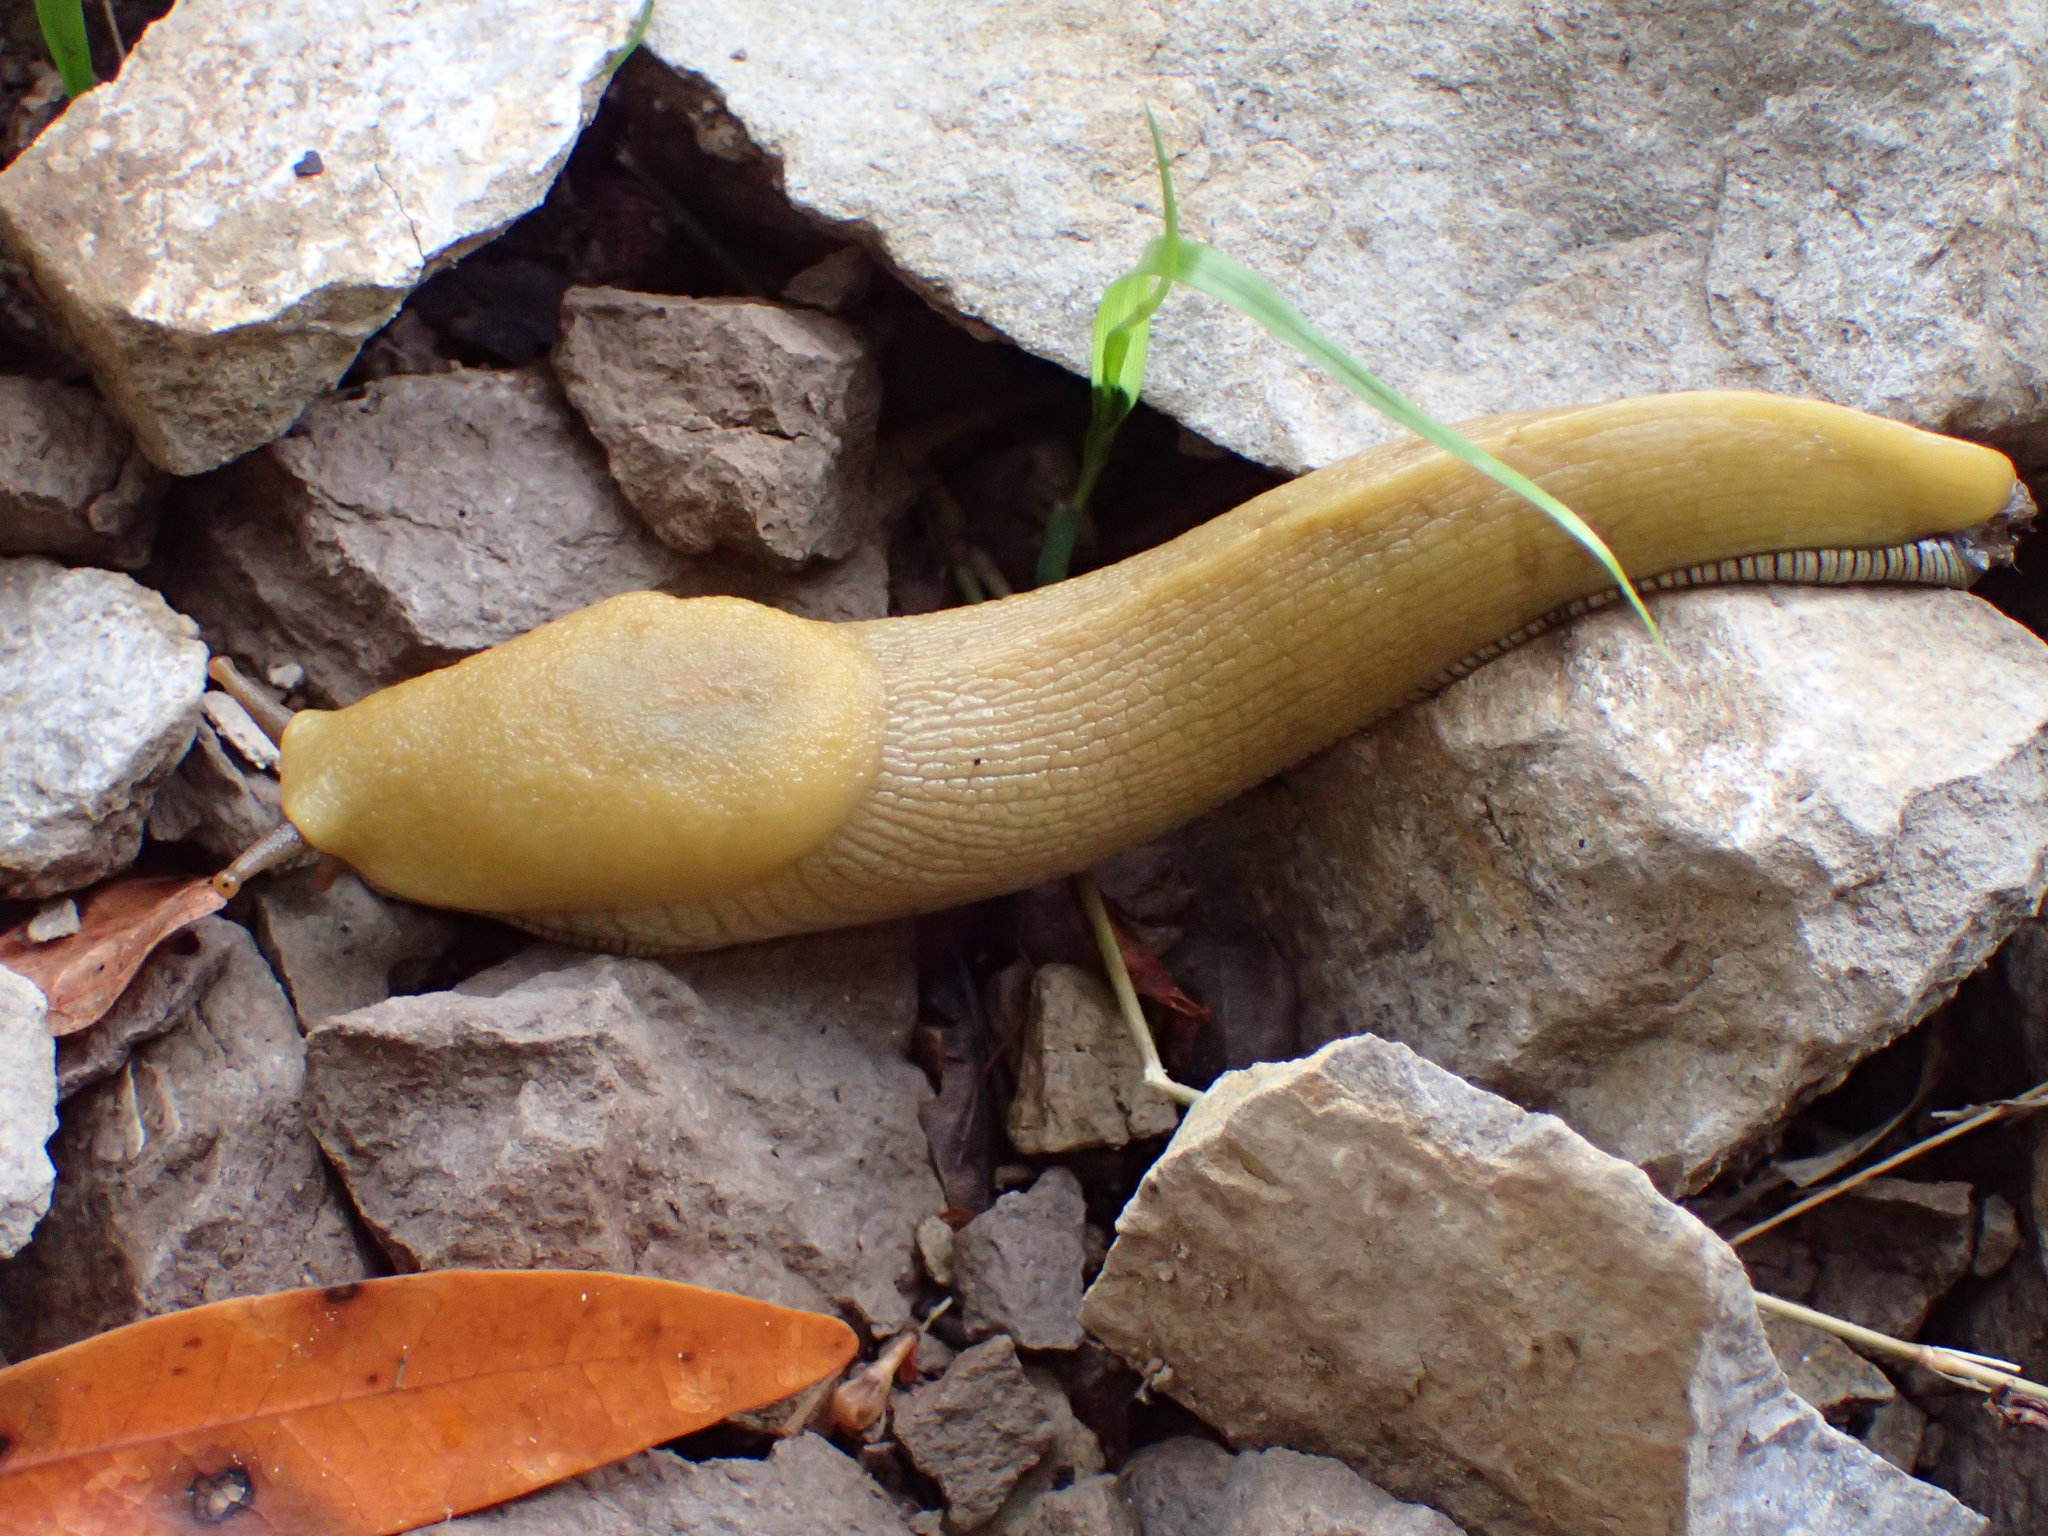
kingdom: Animalia
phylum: Mollusca
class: Gastropoda
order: Stylommatophora
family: Ariolimacidae
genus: Ariolimax
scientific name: Ariolimax stramineus
